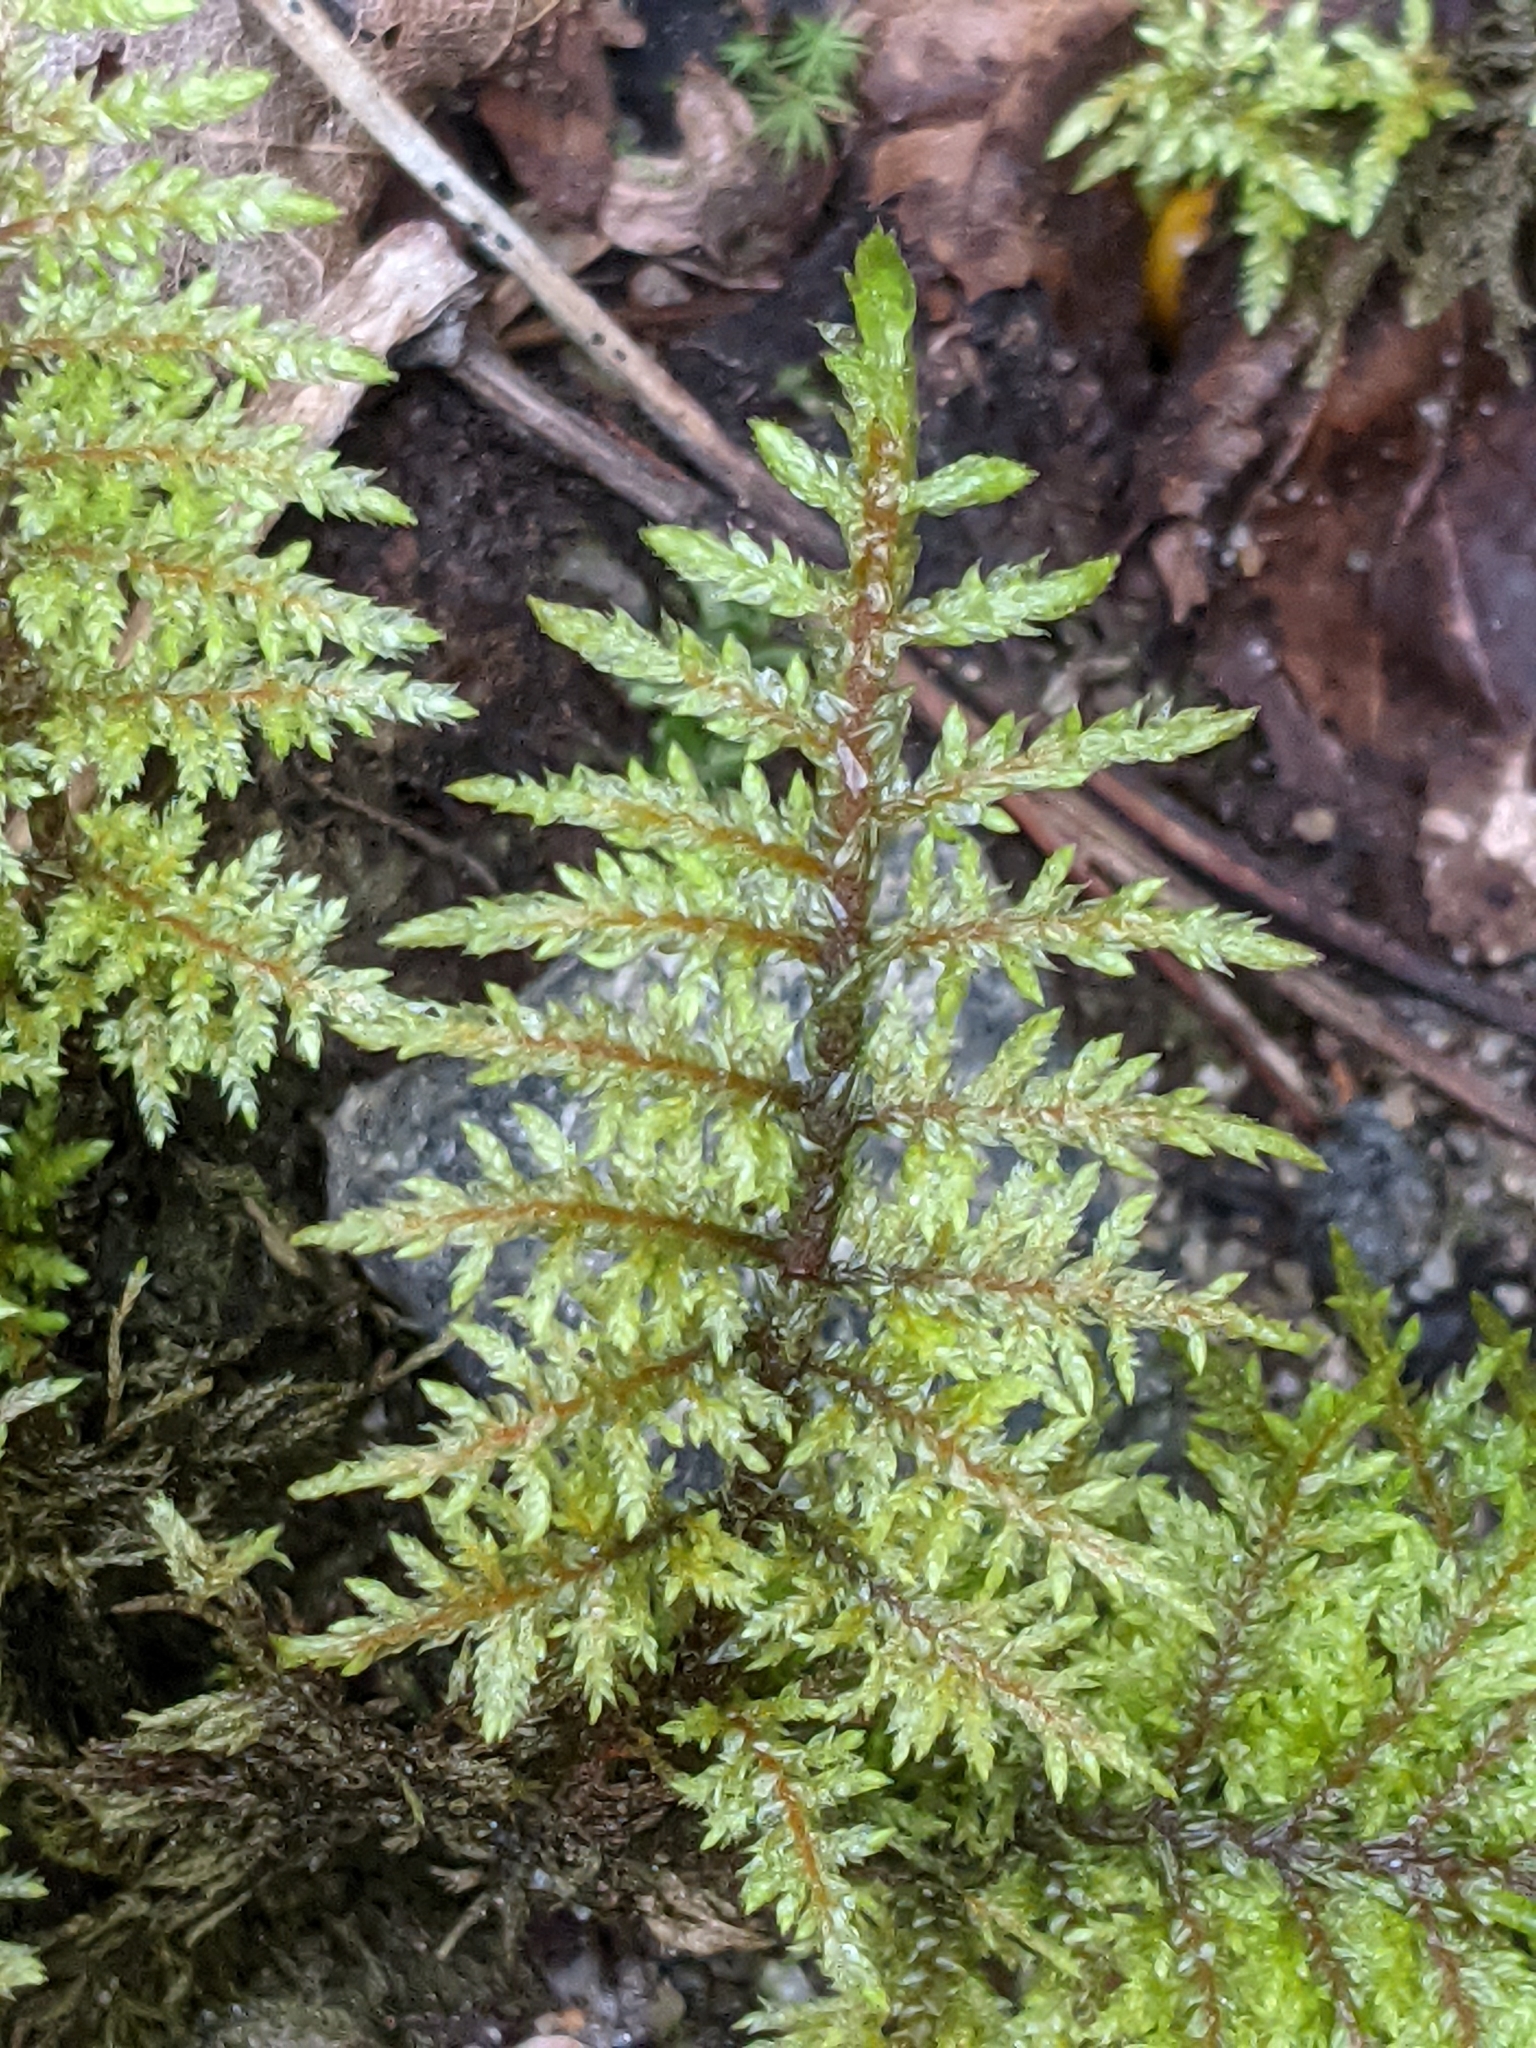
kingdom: Plantae
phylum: Bryophyta
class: Bryopsida
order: Hypnales
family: Hylocomiaceae
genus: Hylocomium
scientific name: Hylocomium splendens
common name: Stairstep moss
